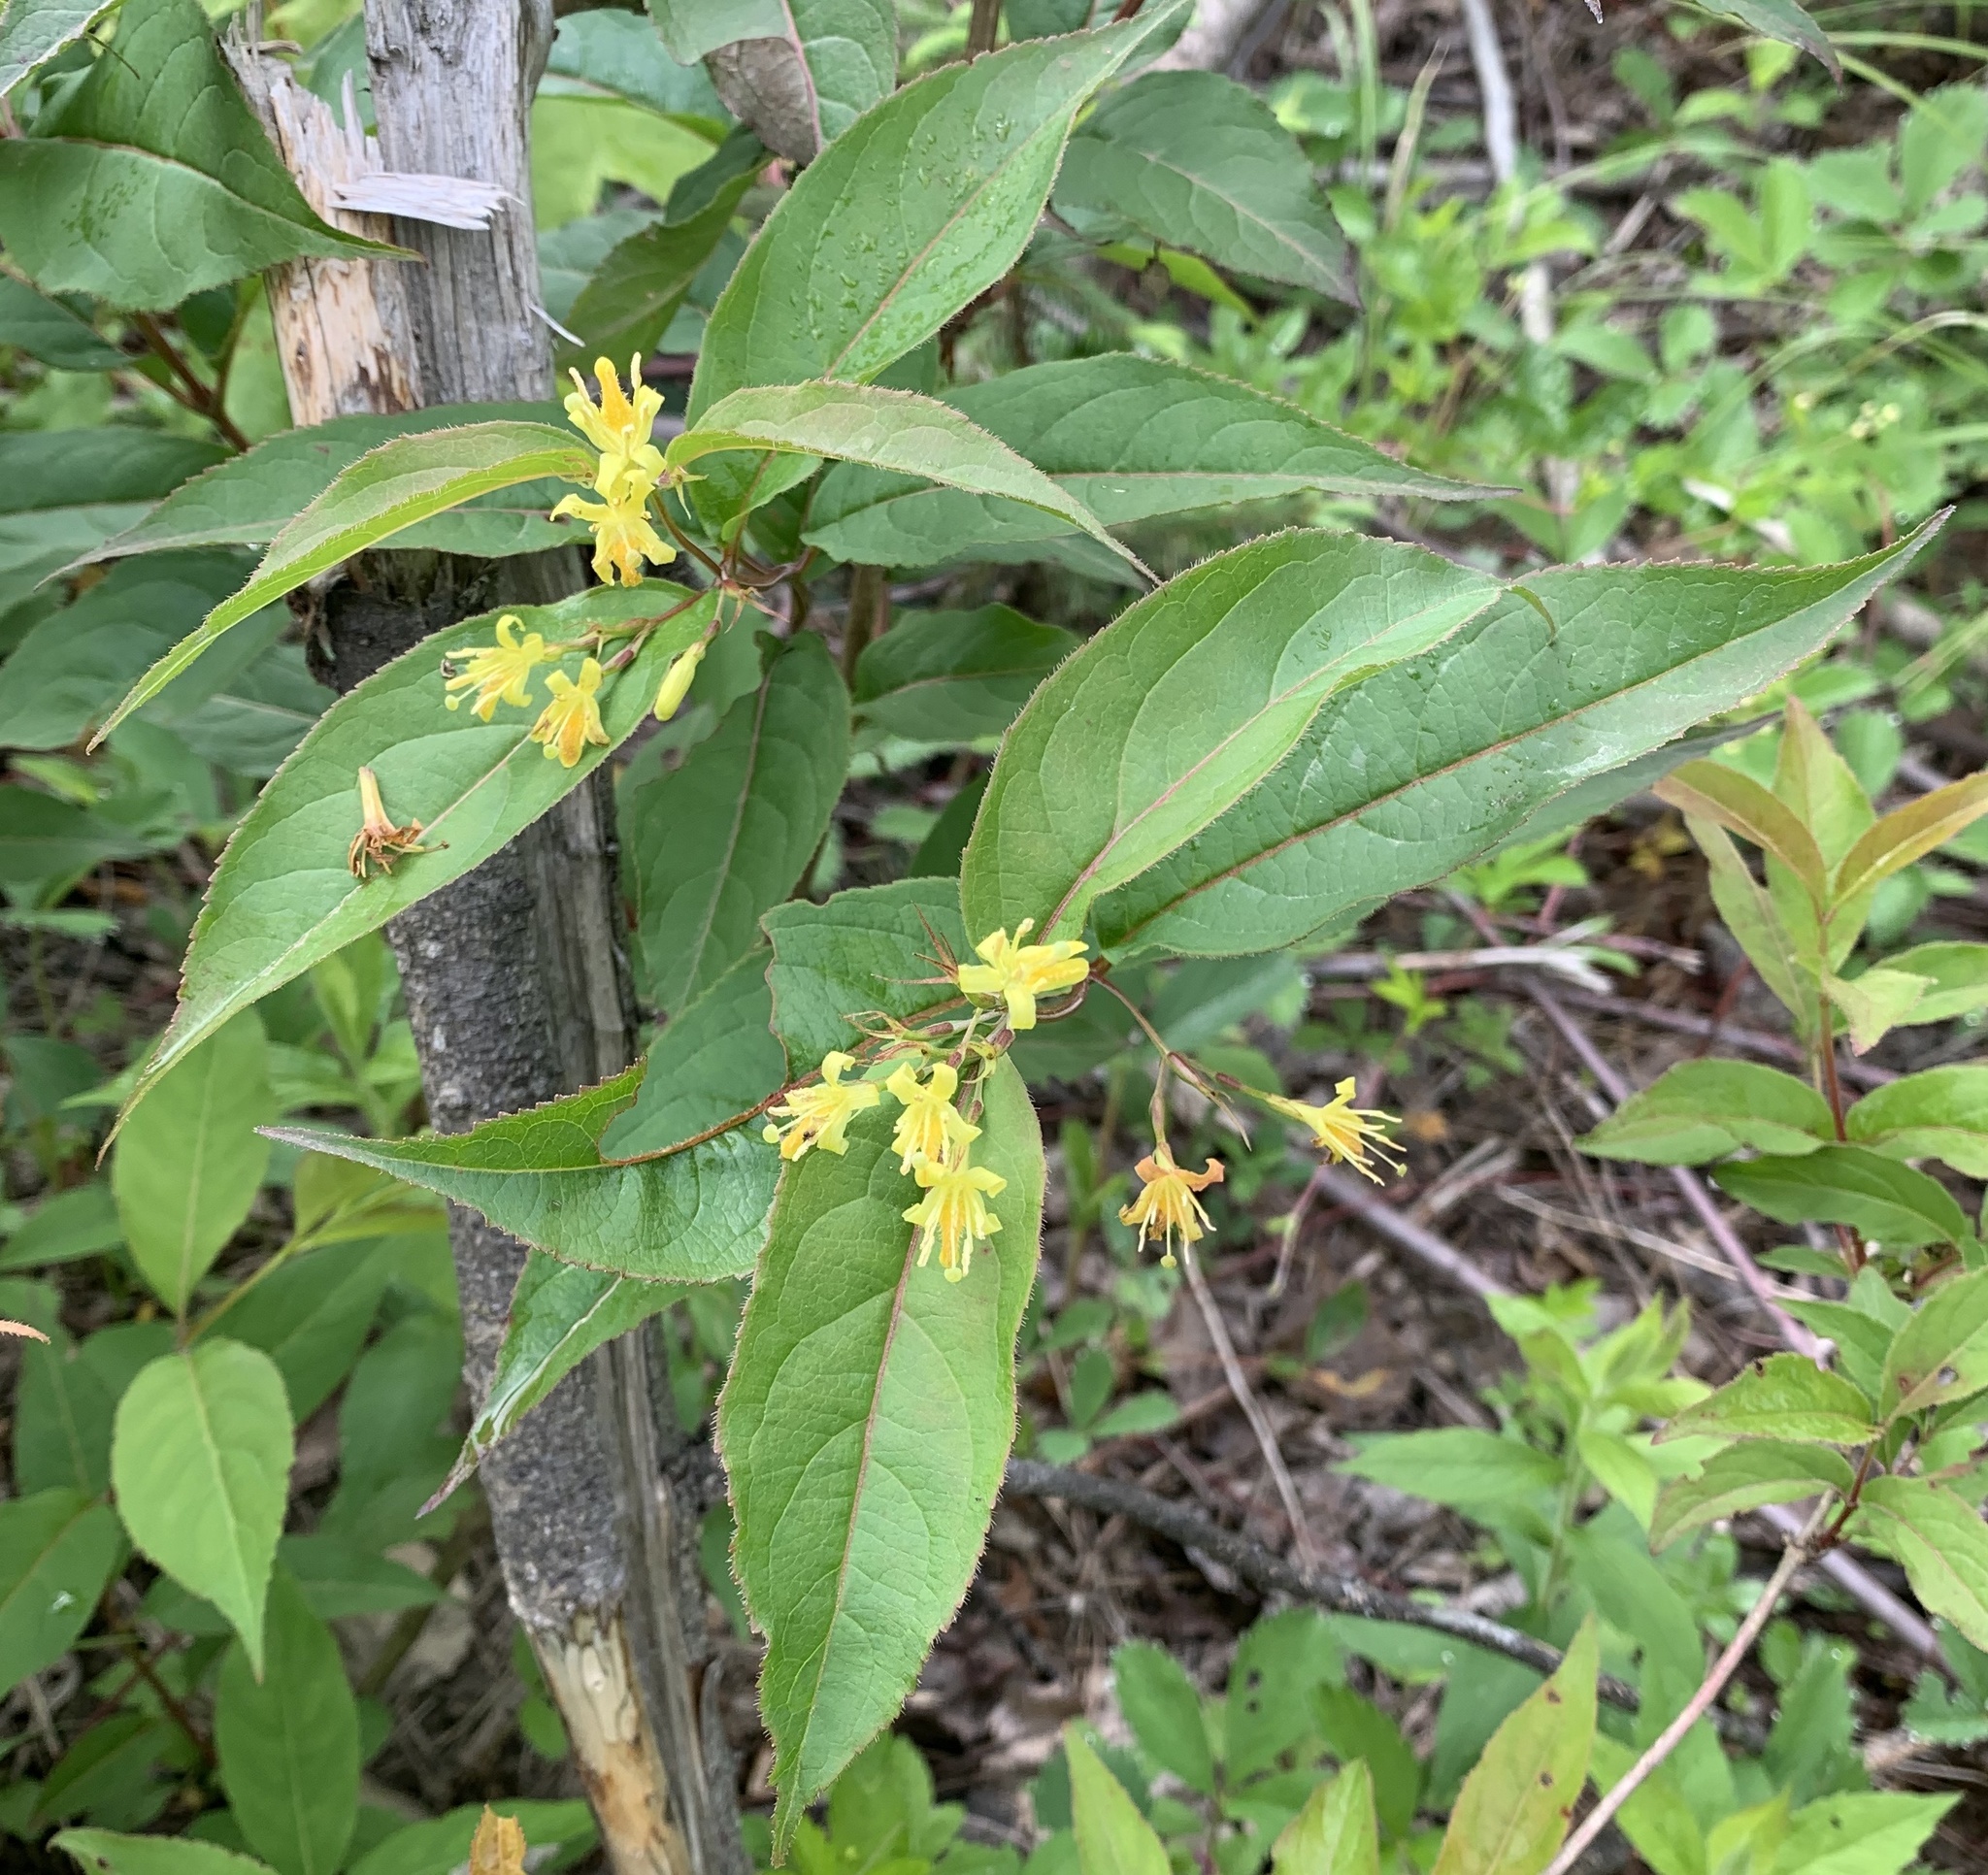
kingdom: Plantae
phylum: Tracheophyta
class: Magnoliopsida
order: Dipsacales
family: Caprifoliaceae
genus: Diervilla
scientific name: Diervilla lonicera
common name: Bush-honeysuckle
